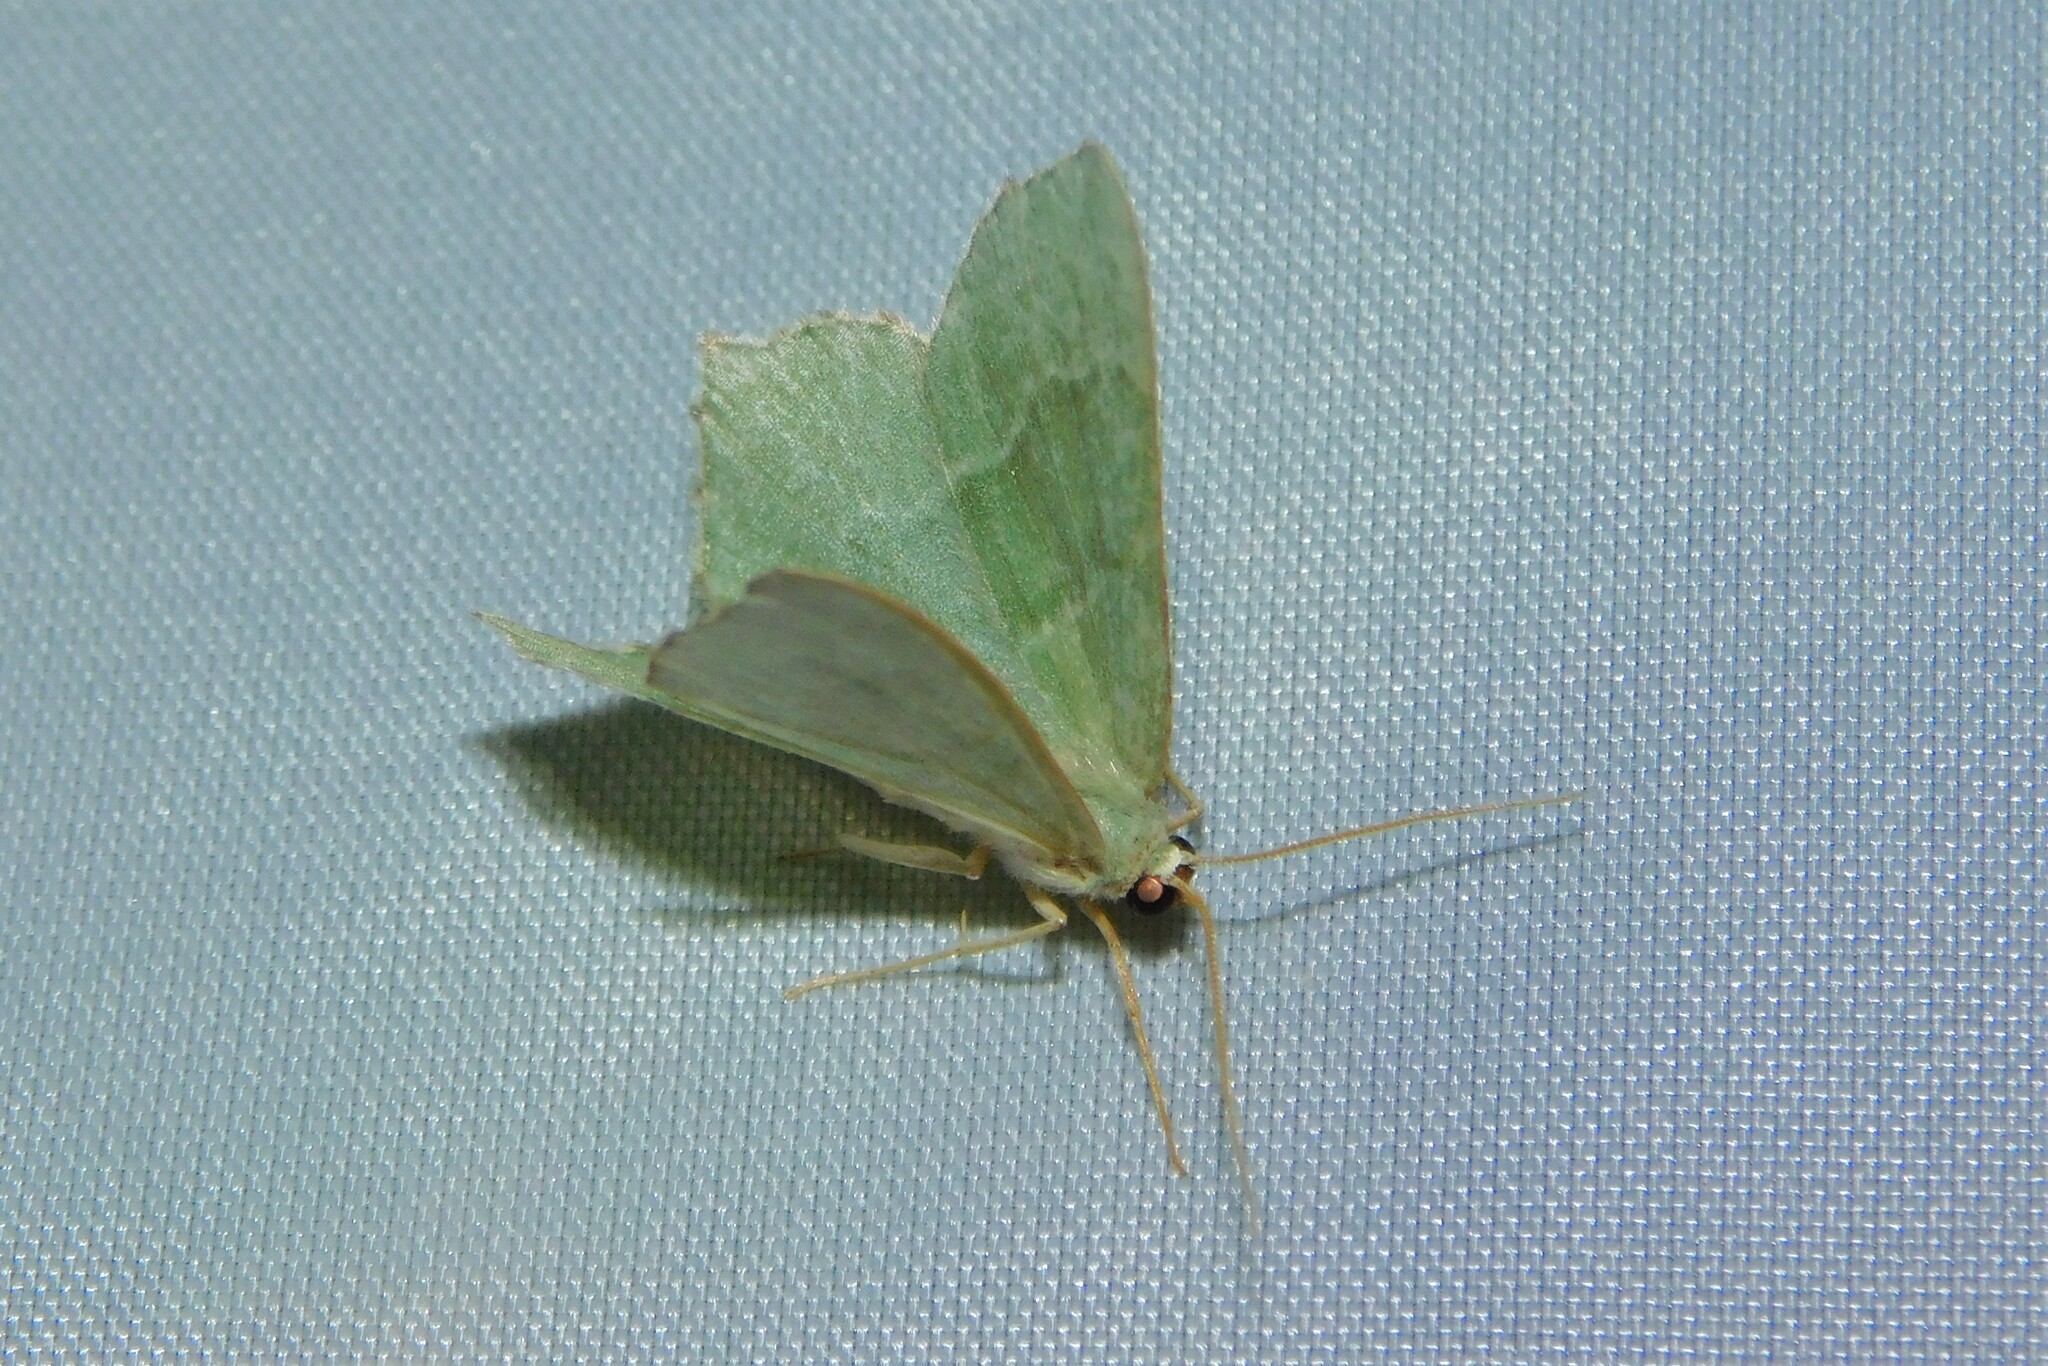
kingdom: Animalia
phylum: Arthropoda
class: Insecta
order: Lepidoptera
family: Geometridae
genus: Hemithea
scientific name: Hemithea aestivaria
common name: Common emerald
